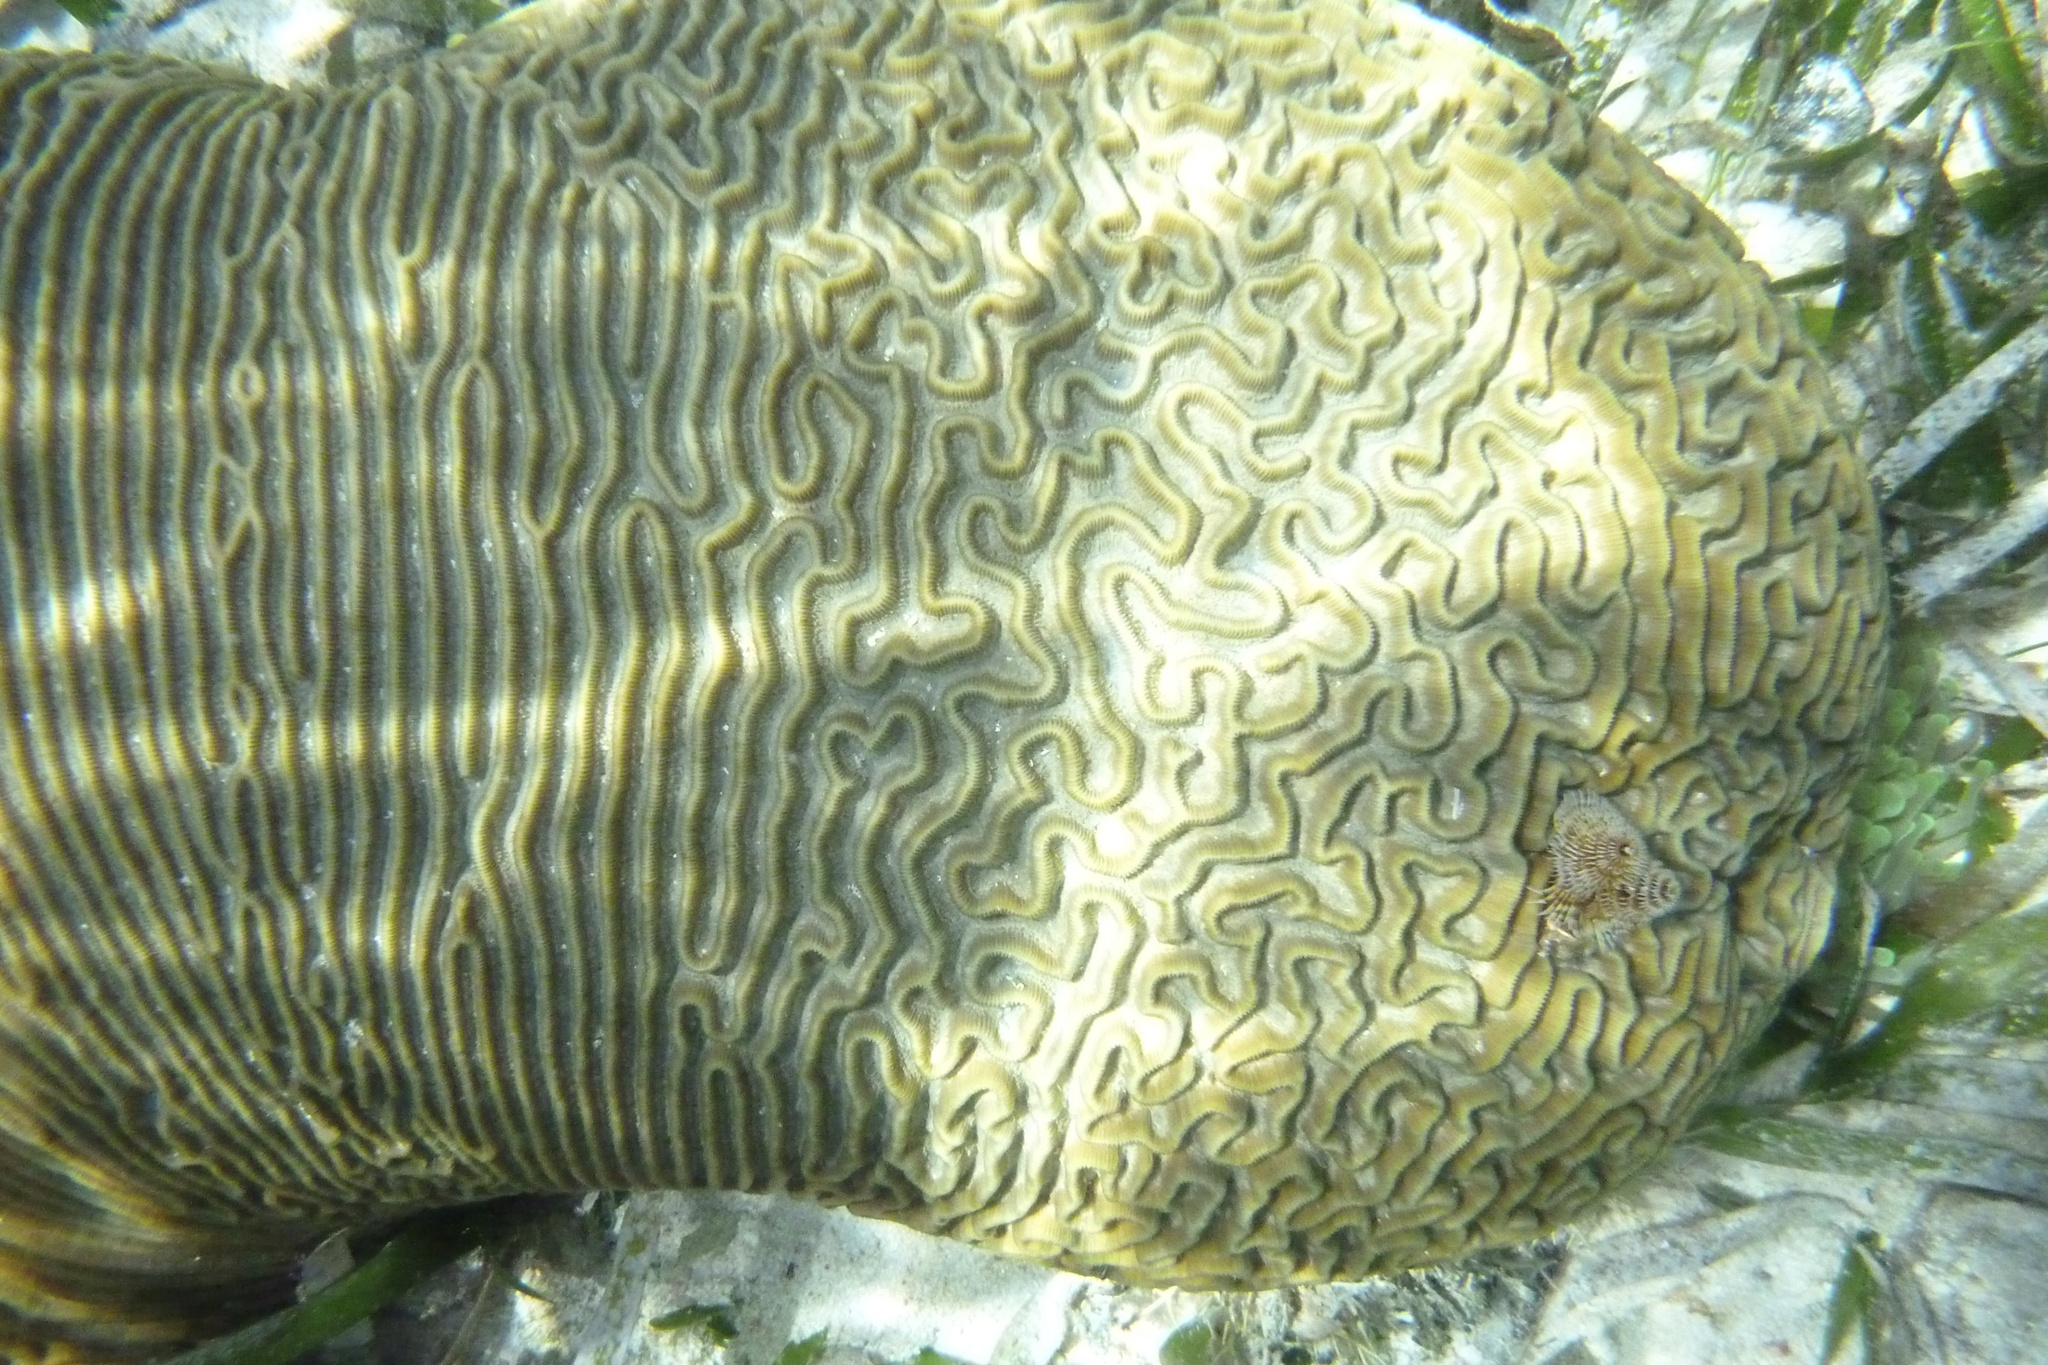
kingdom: Animalia
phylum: Cnidaria
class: Anthozoa
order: Scleractinia
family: Faviidae
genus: Pseudodiploria
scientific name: Pseudodiploria strigosa
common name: Symmetrical brain coral
